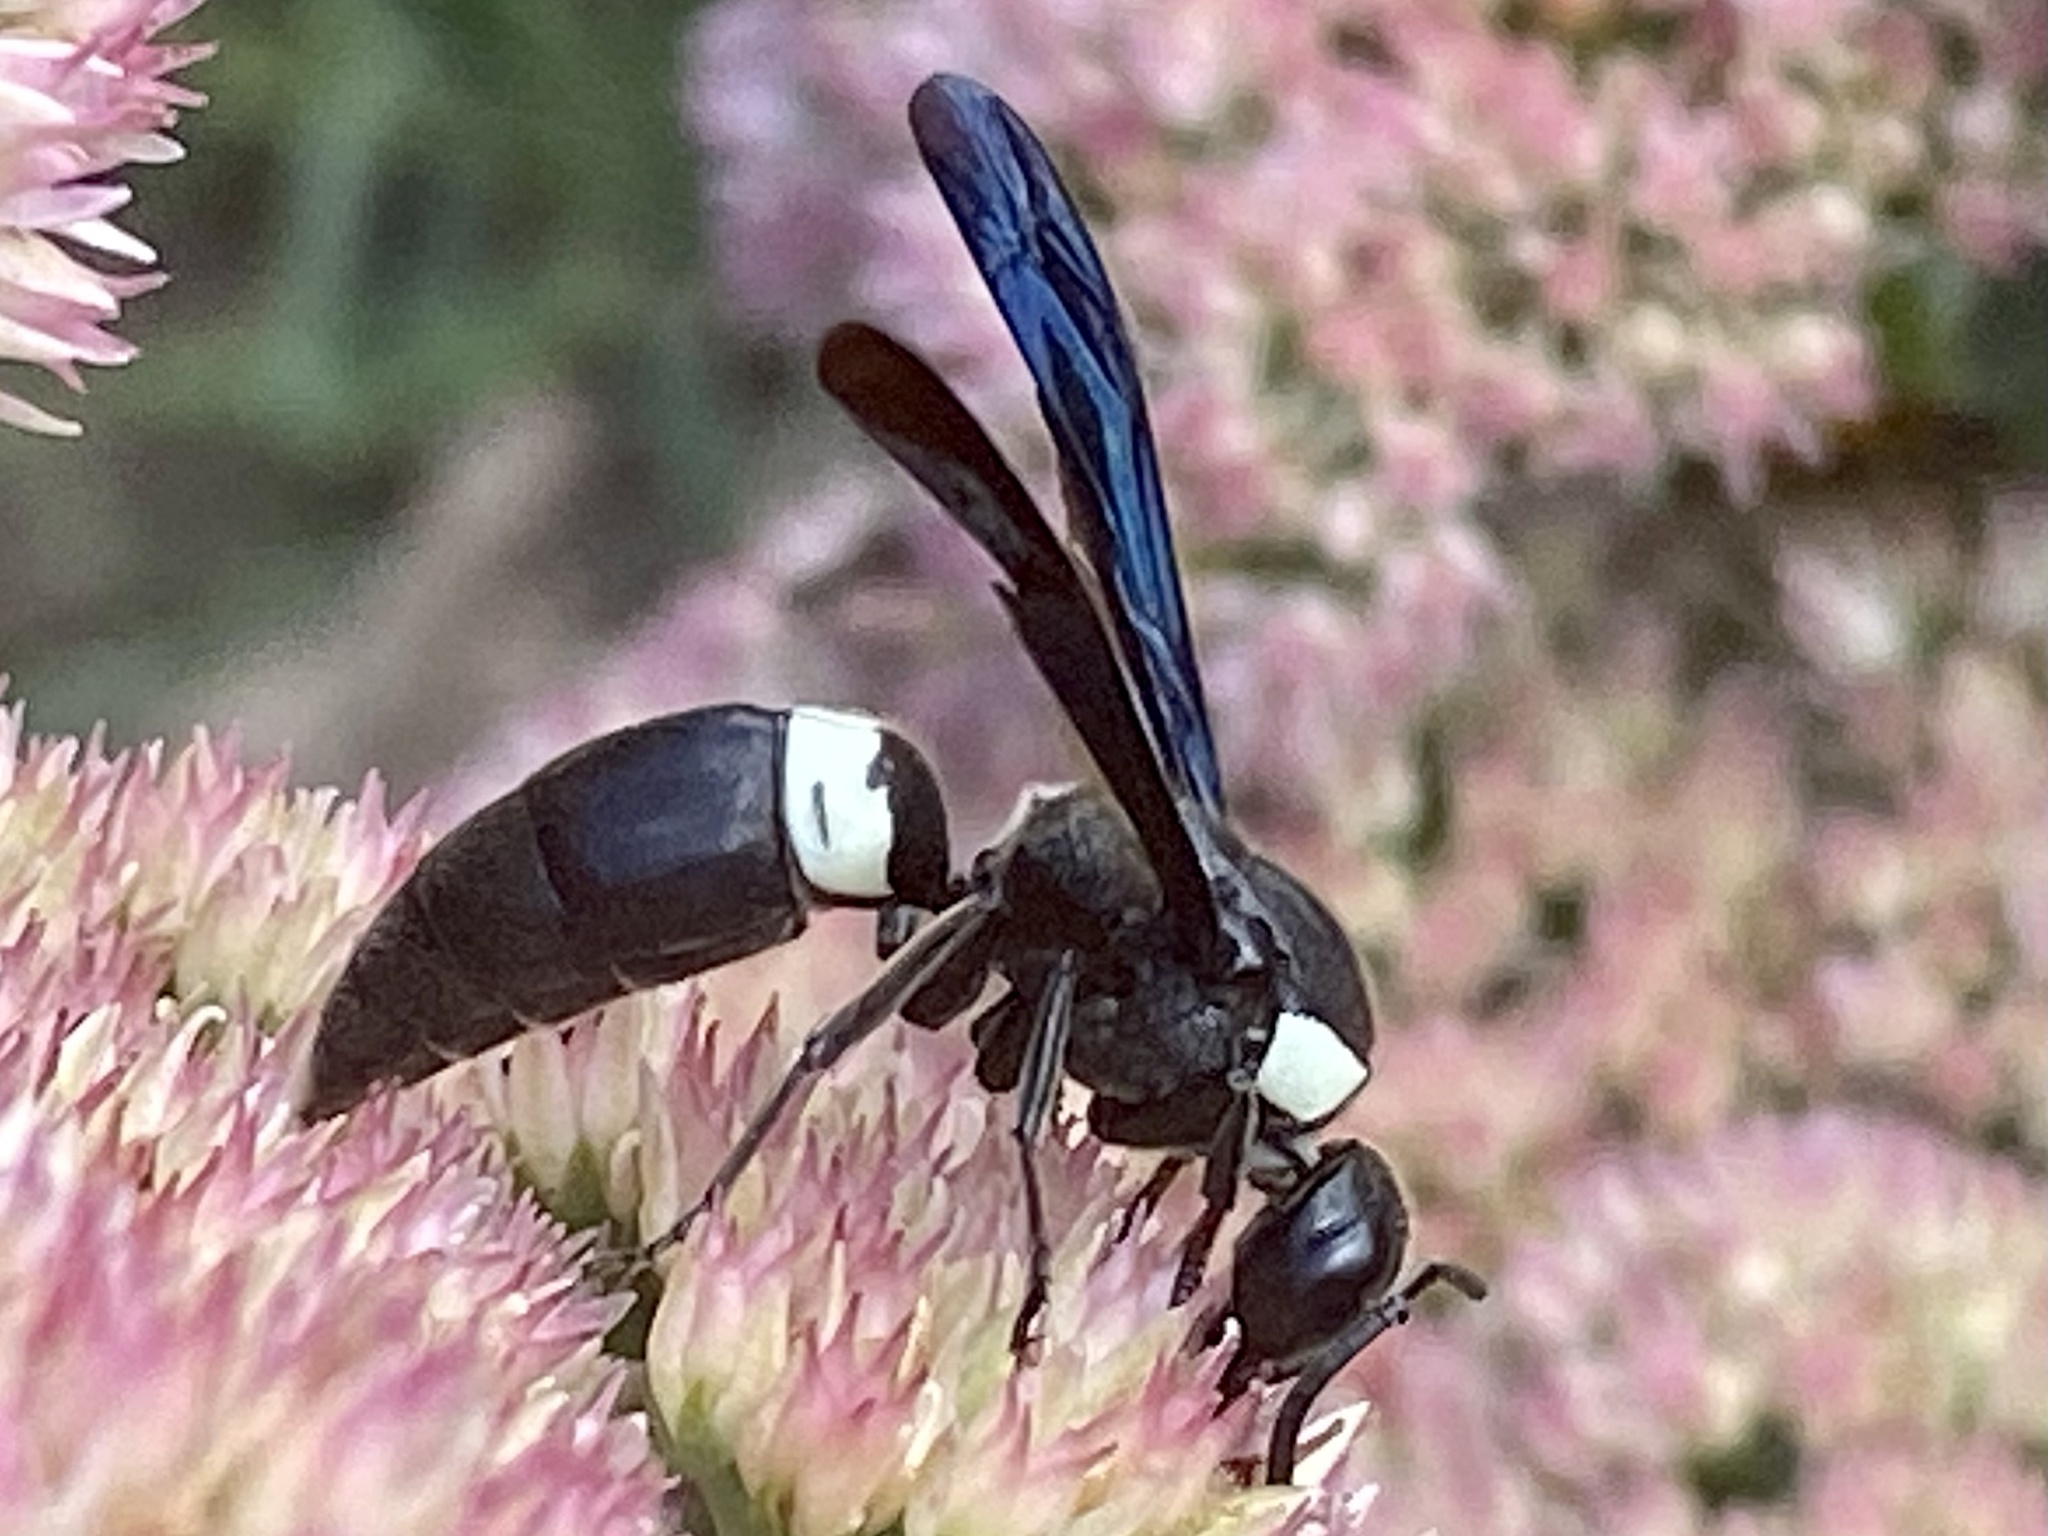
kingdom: Animalia
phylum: Arthropoda
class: Insecta
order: Hymenoptera
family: Eumenidae
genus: Monobia
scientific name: Monobia quadridens
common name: Four-toothed mason wasp
